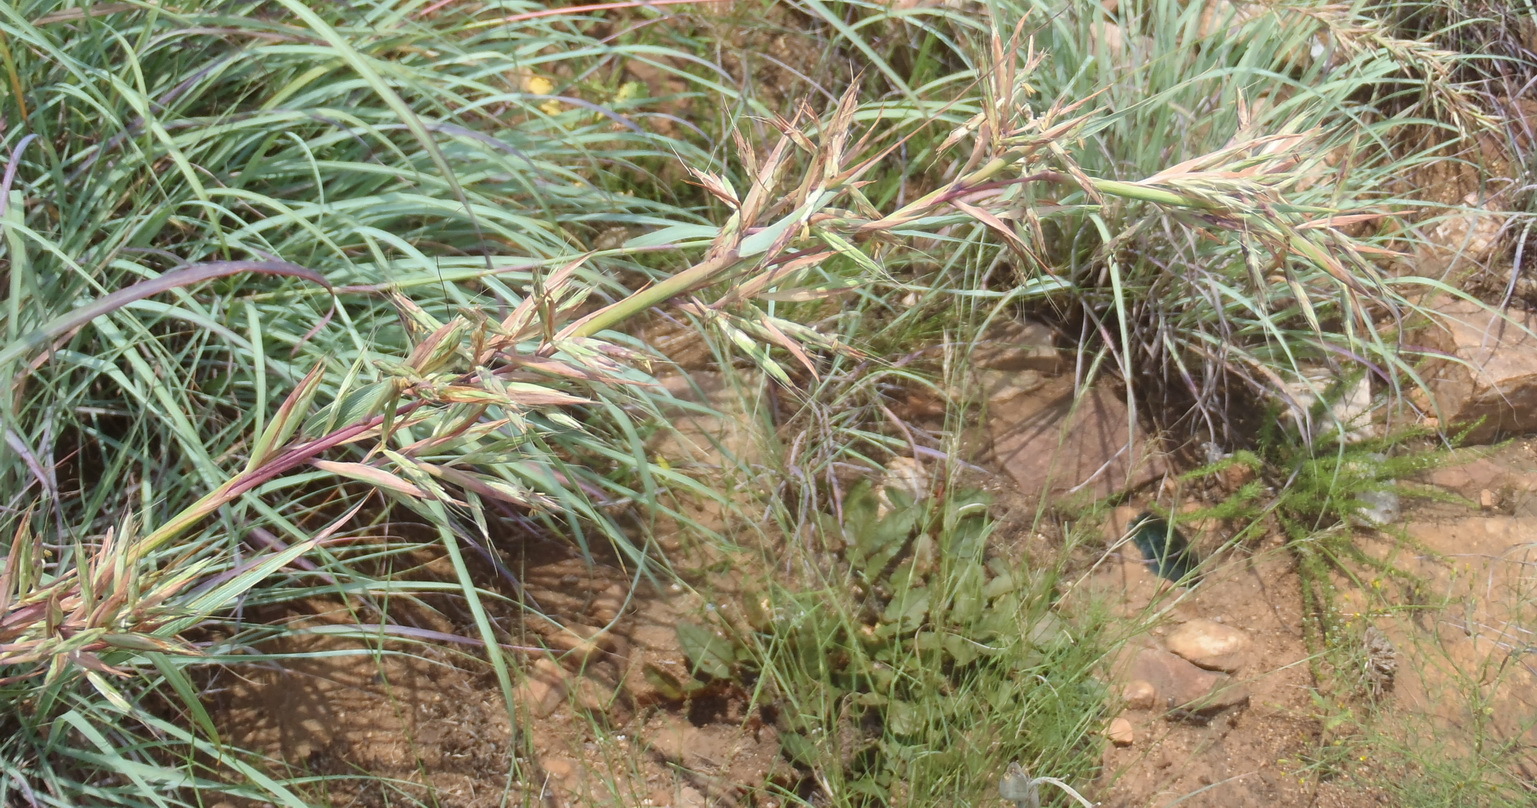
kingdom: Plantae
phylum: Tracheophyta
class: Liliopsida
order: Poales
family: Poaceae
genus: Cymbopogon
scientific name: Cymbopogon caesius
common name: Kachi grass
